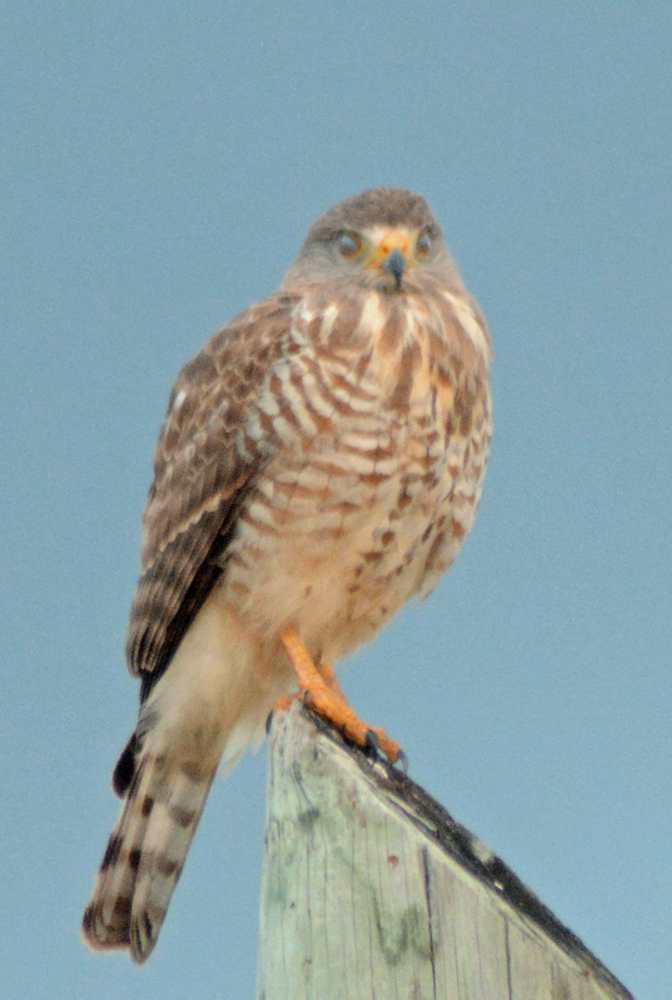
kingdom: Animalia
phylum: Chordata
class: Aves
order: Accipitriformes
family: Accipitridae
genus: Rupornis
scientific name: Rupornis magnirostris
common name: Roadside hawk
